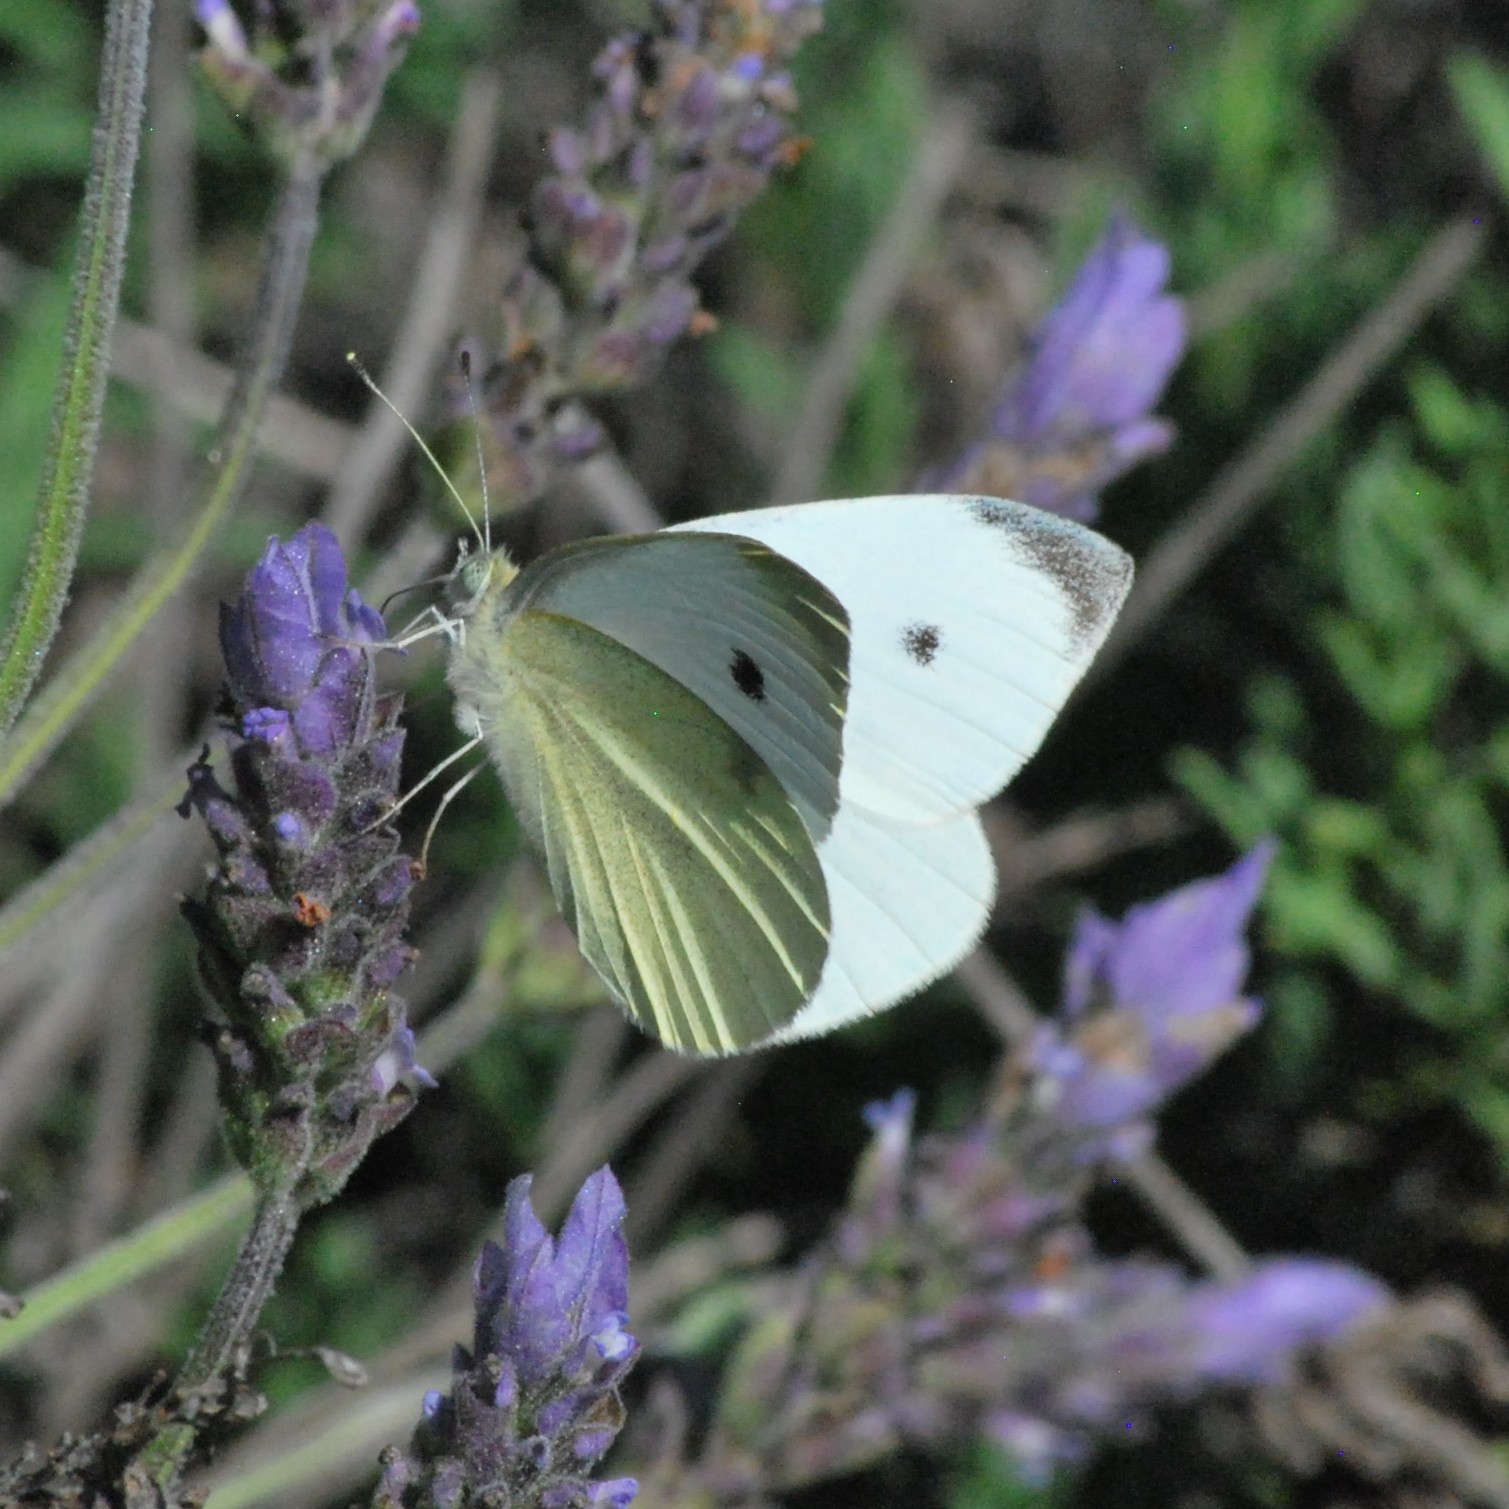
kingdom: Animalia
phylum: Arthropoda
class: Insecta
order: Lepidoptera
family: Pieridae
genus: Pieris
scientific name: Pieris rapae
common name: Small white
